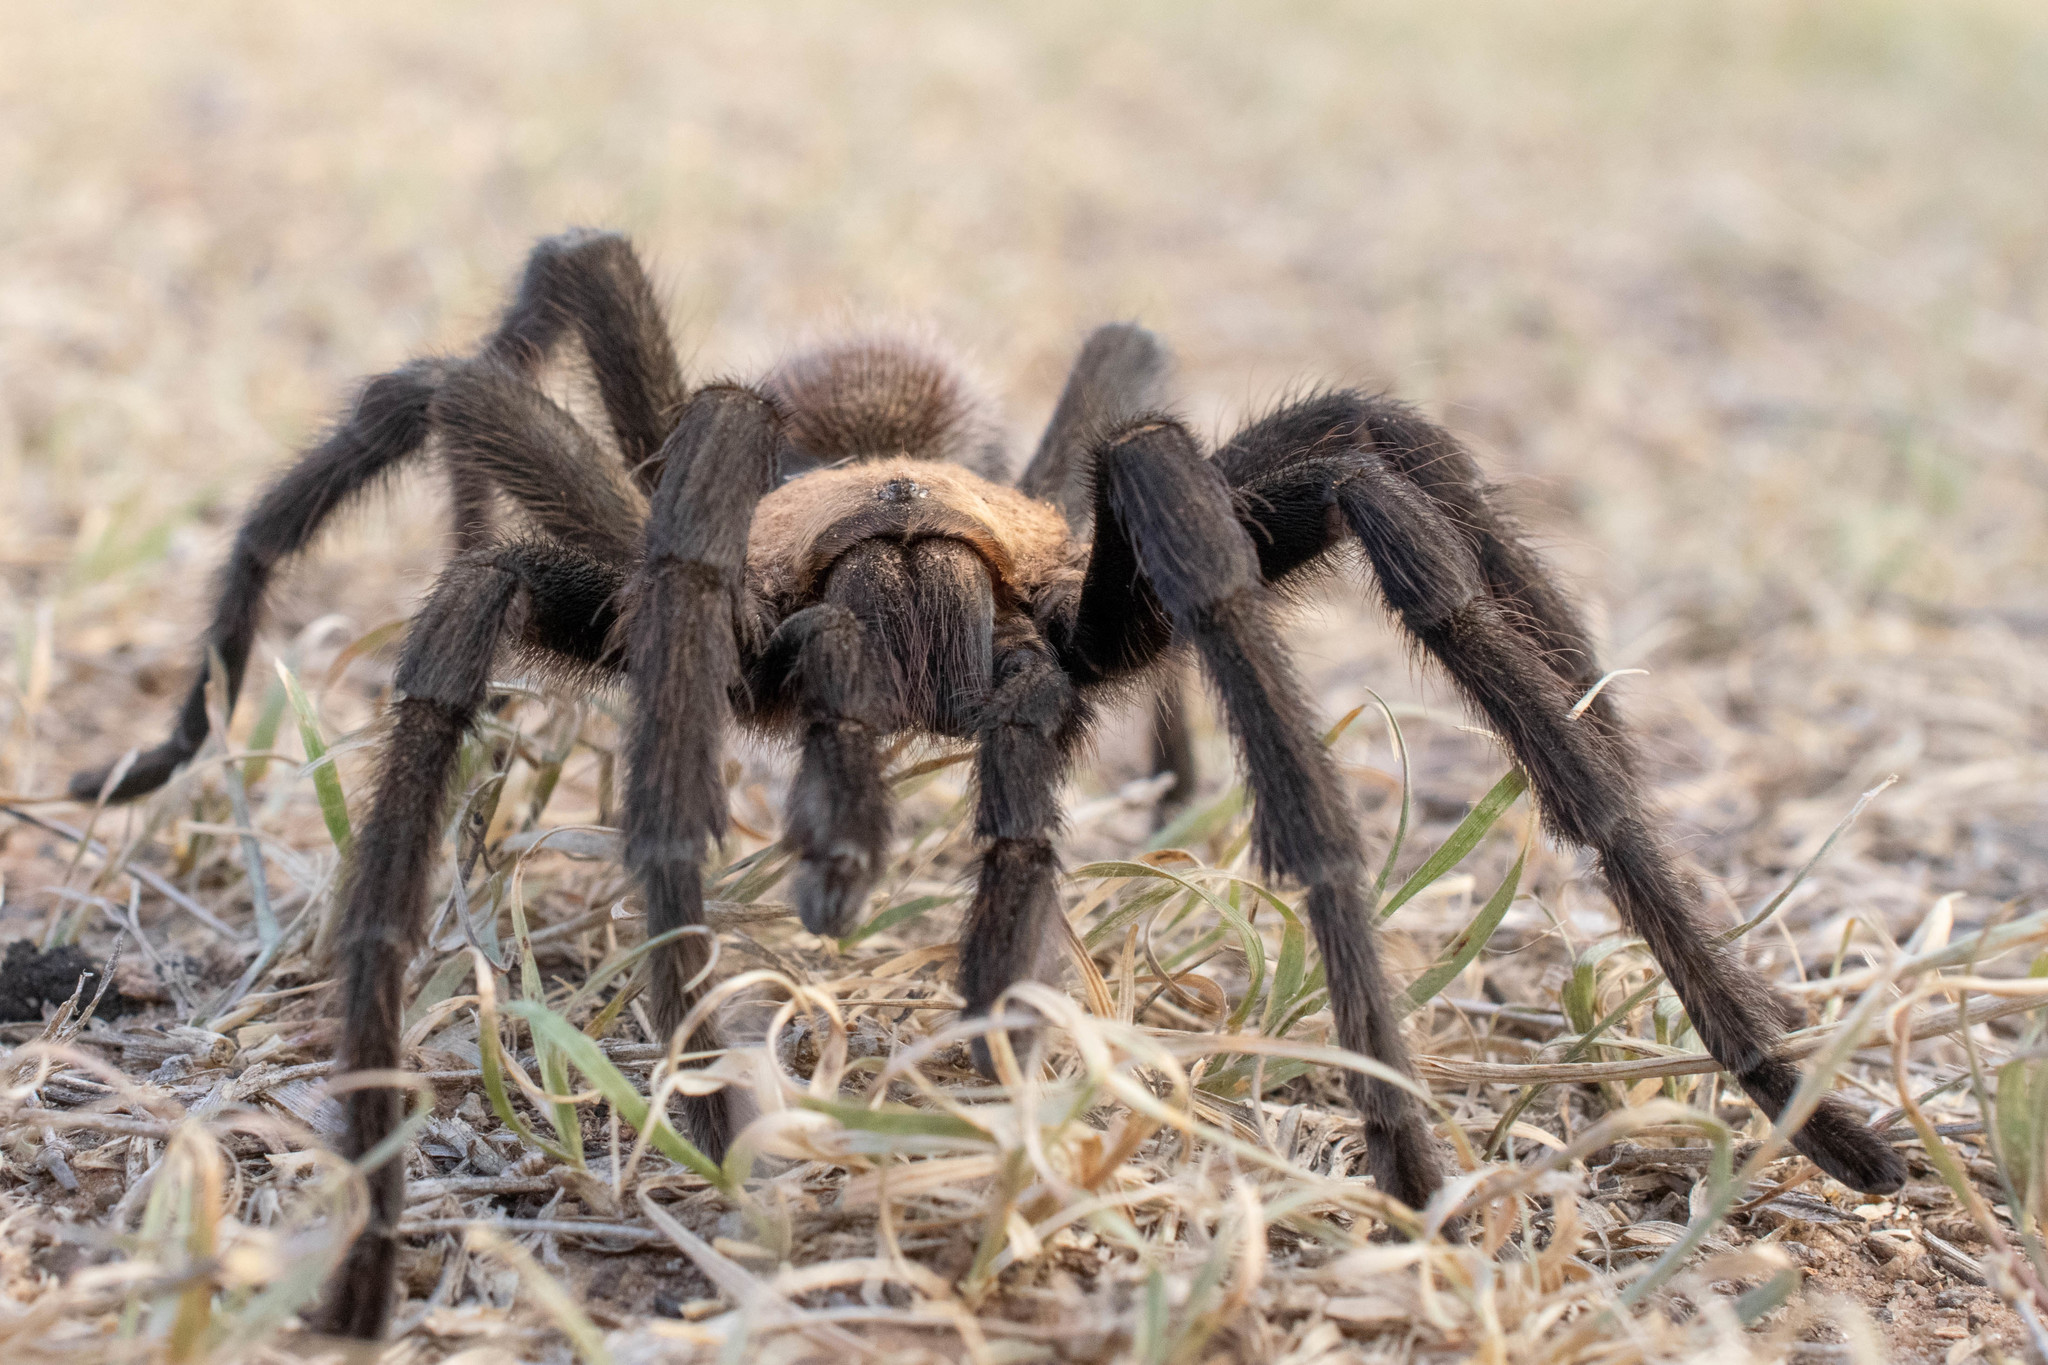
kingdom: Animalia
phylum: Arthropoda
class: Arachnida
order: Araneae
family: Theraphosidae
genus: Aphonopelma
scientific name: Aphonopelma hentzi
